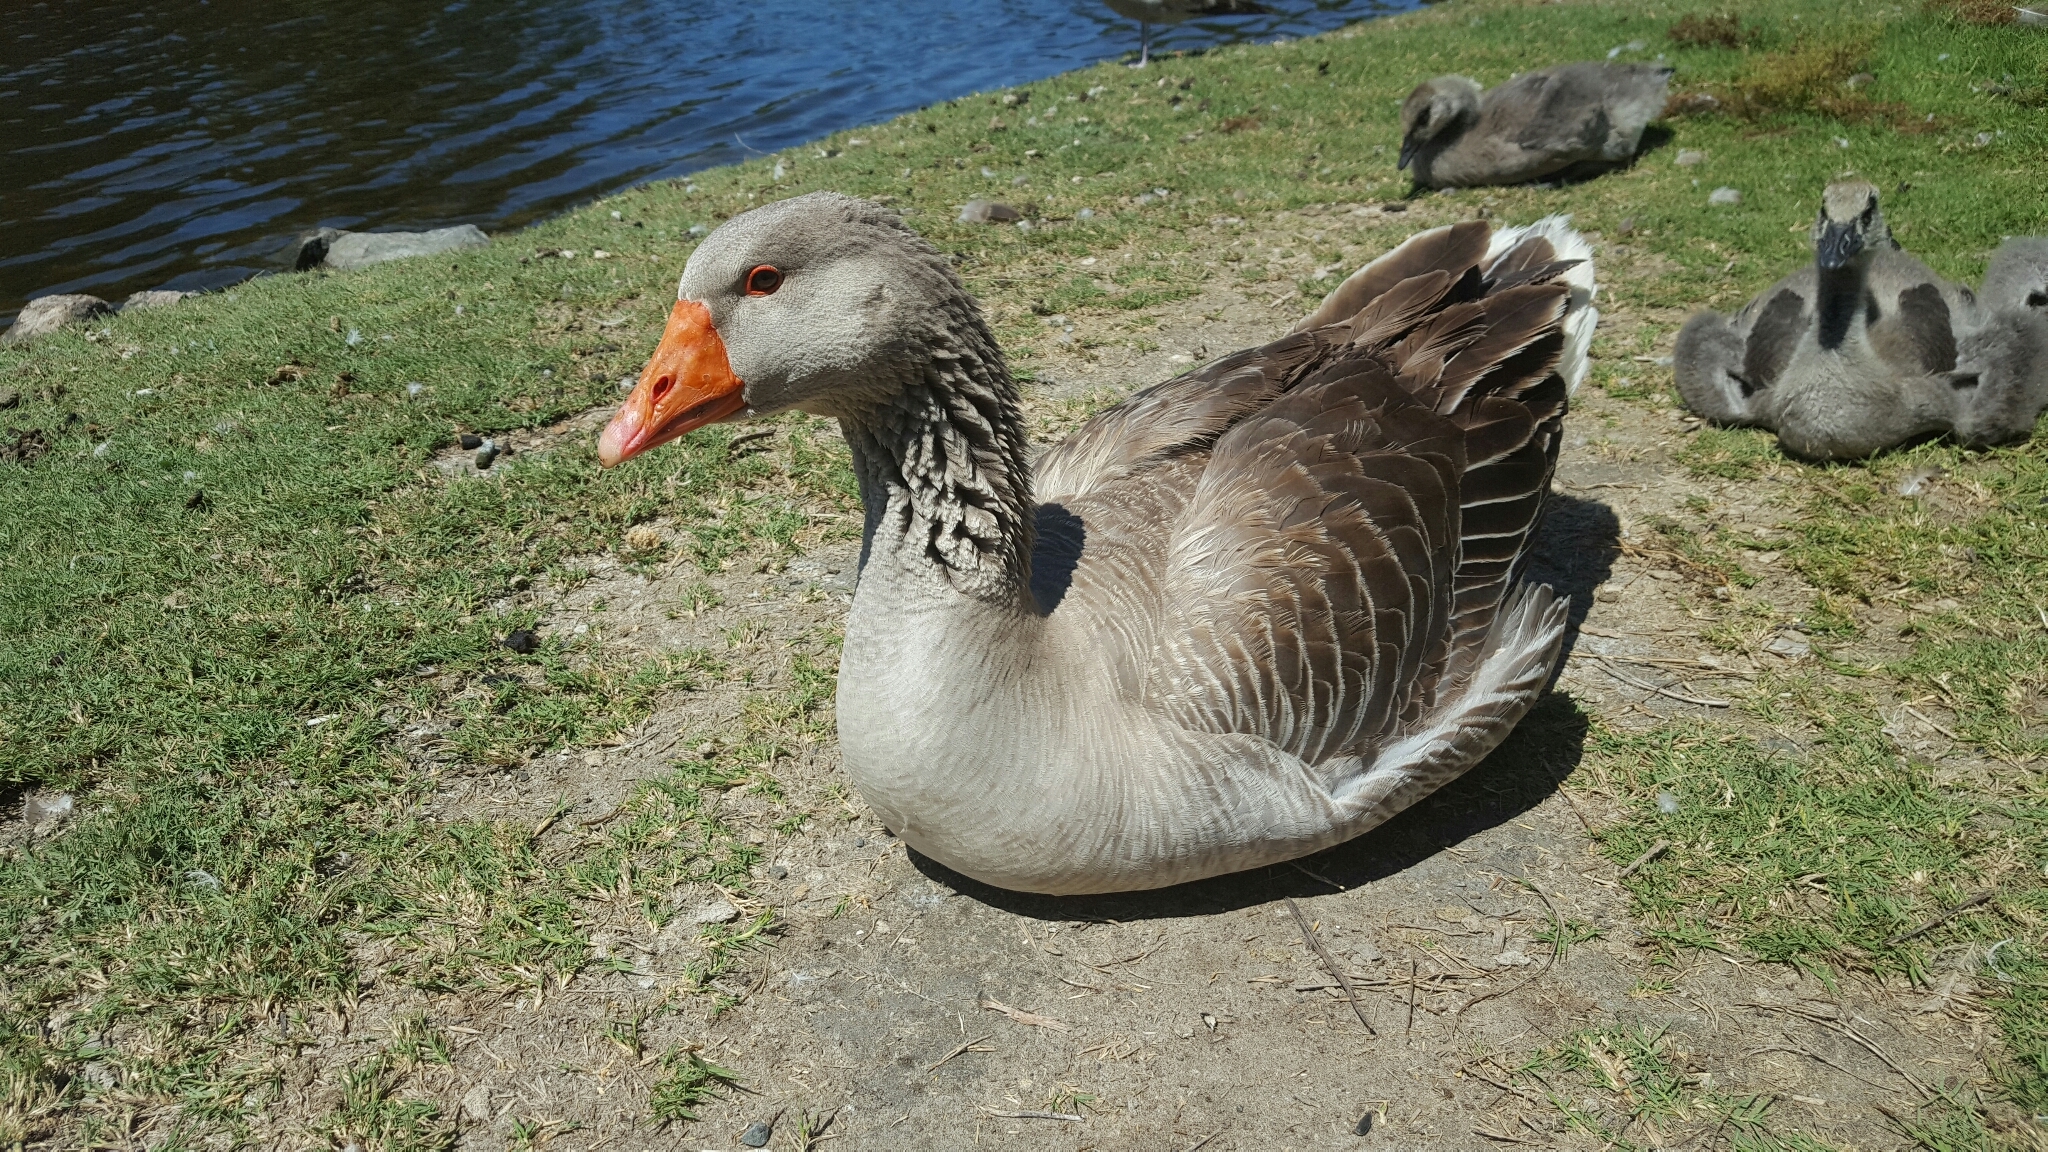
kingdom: Animalia
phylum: Chordata
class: Aves
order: Anseriformes
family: Anatidae
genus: Anser
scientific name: Anser anser
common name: Greylag goose
